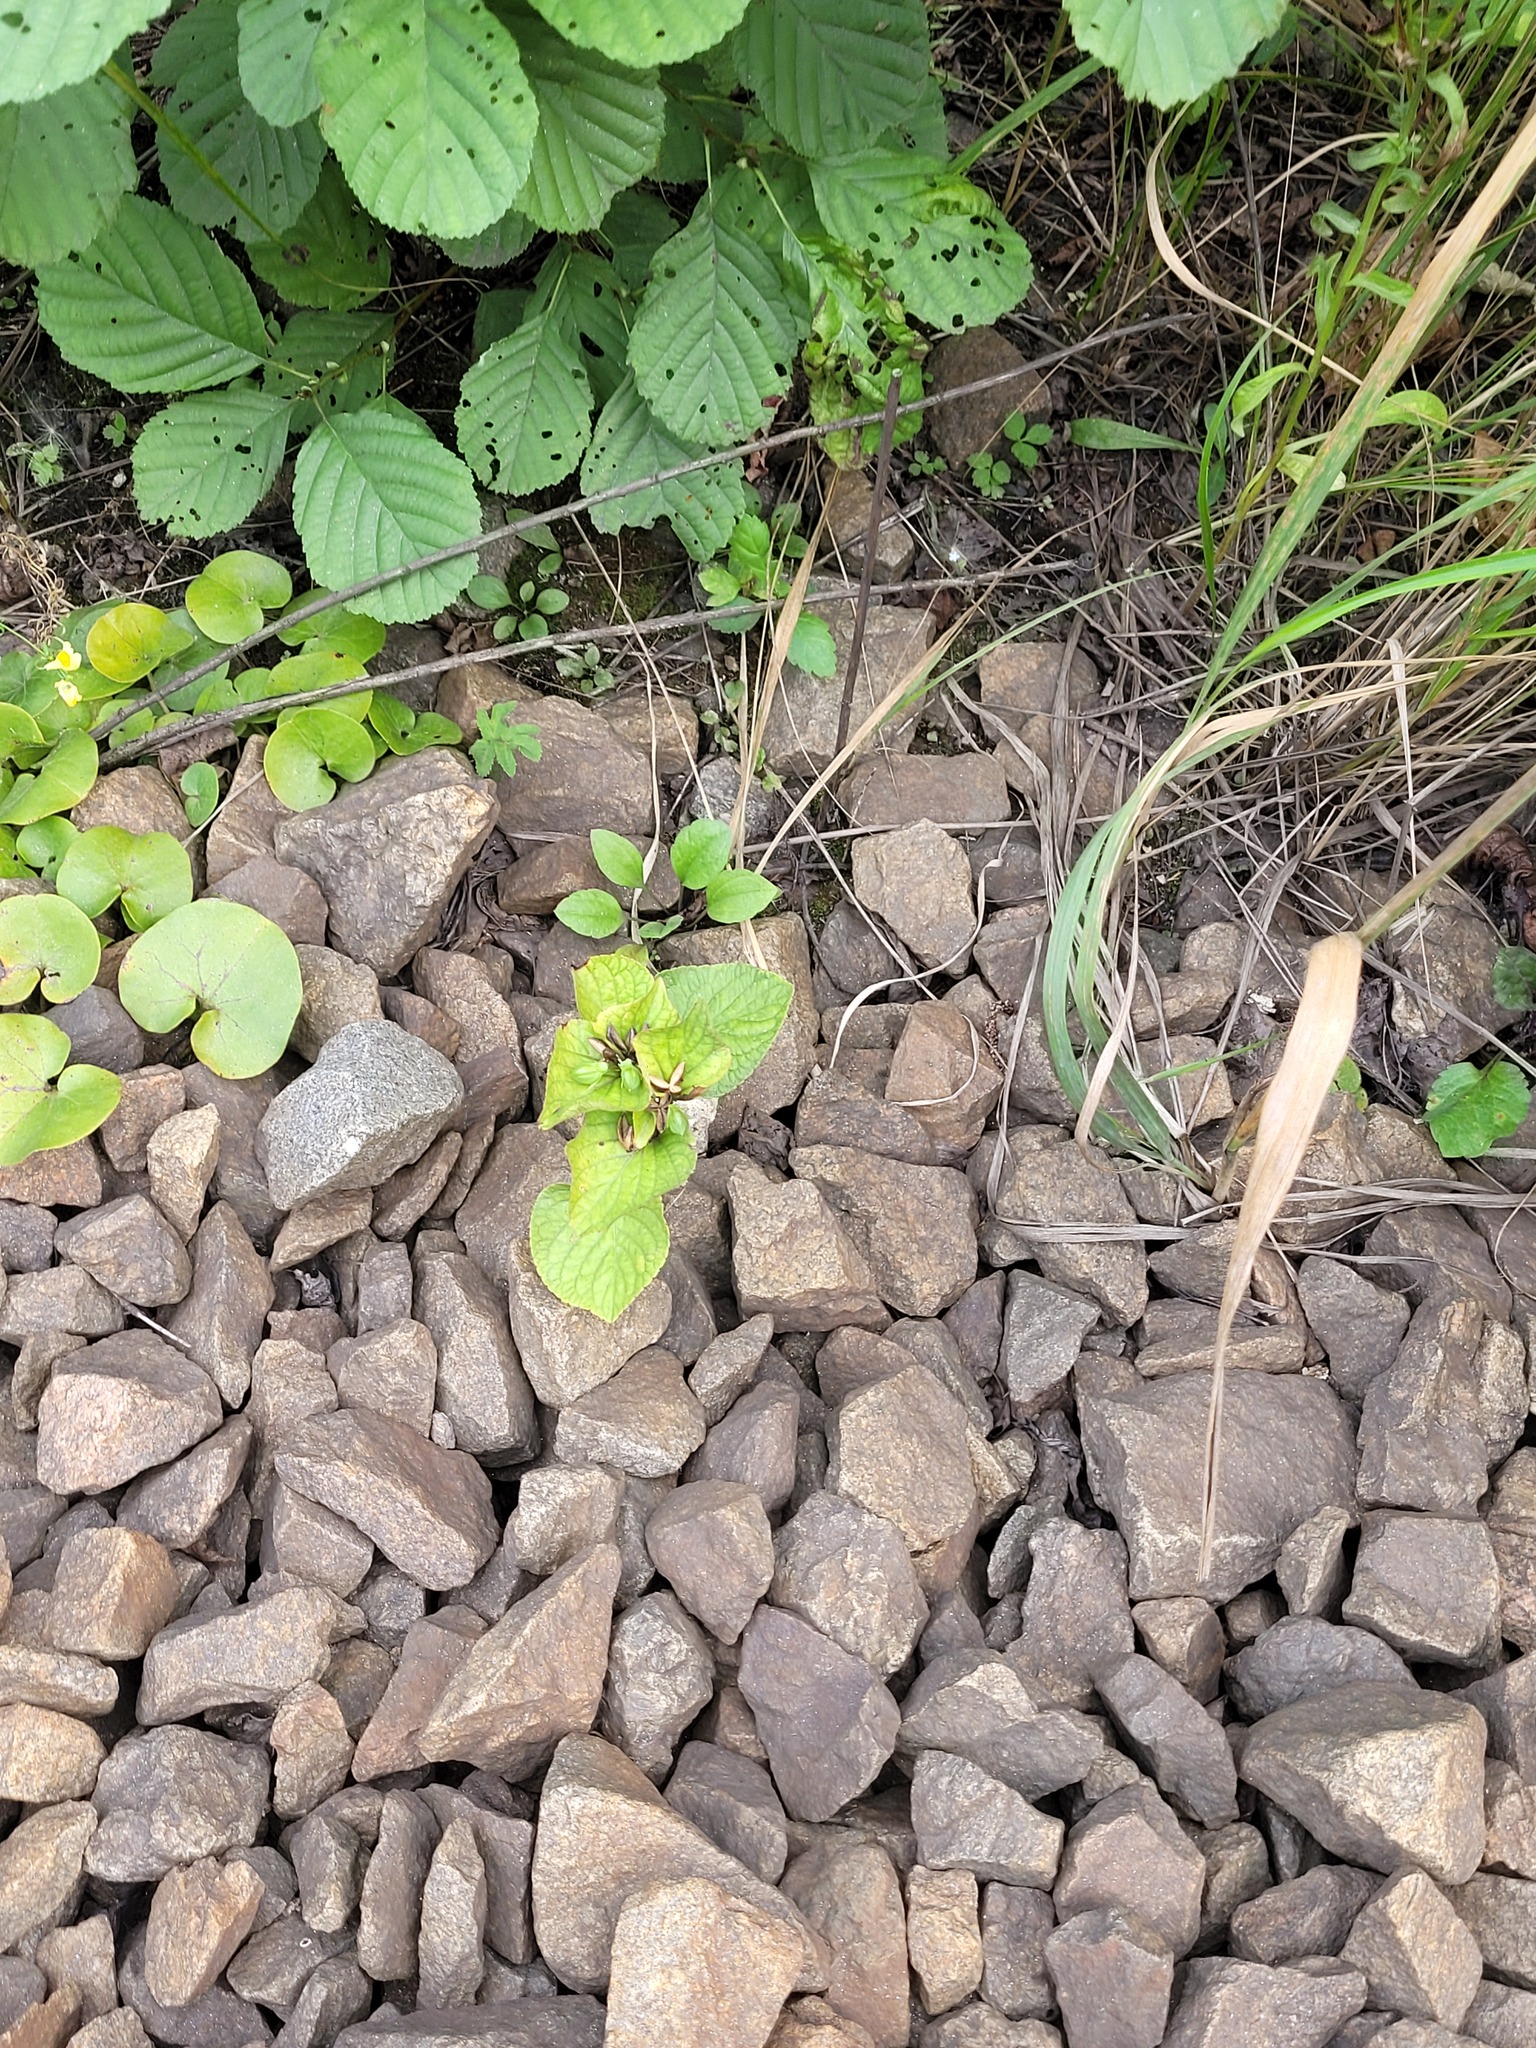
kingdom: Plantae
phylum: Tracheophyta
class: Magnoliopsida
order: Malpighiales
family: Violaceae
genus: Viola
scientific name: Viola mirabilis
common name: Wonder violet
